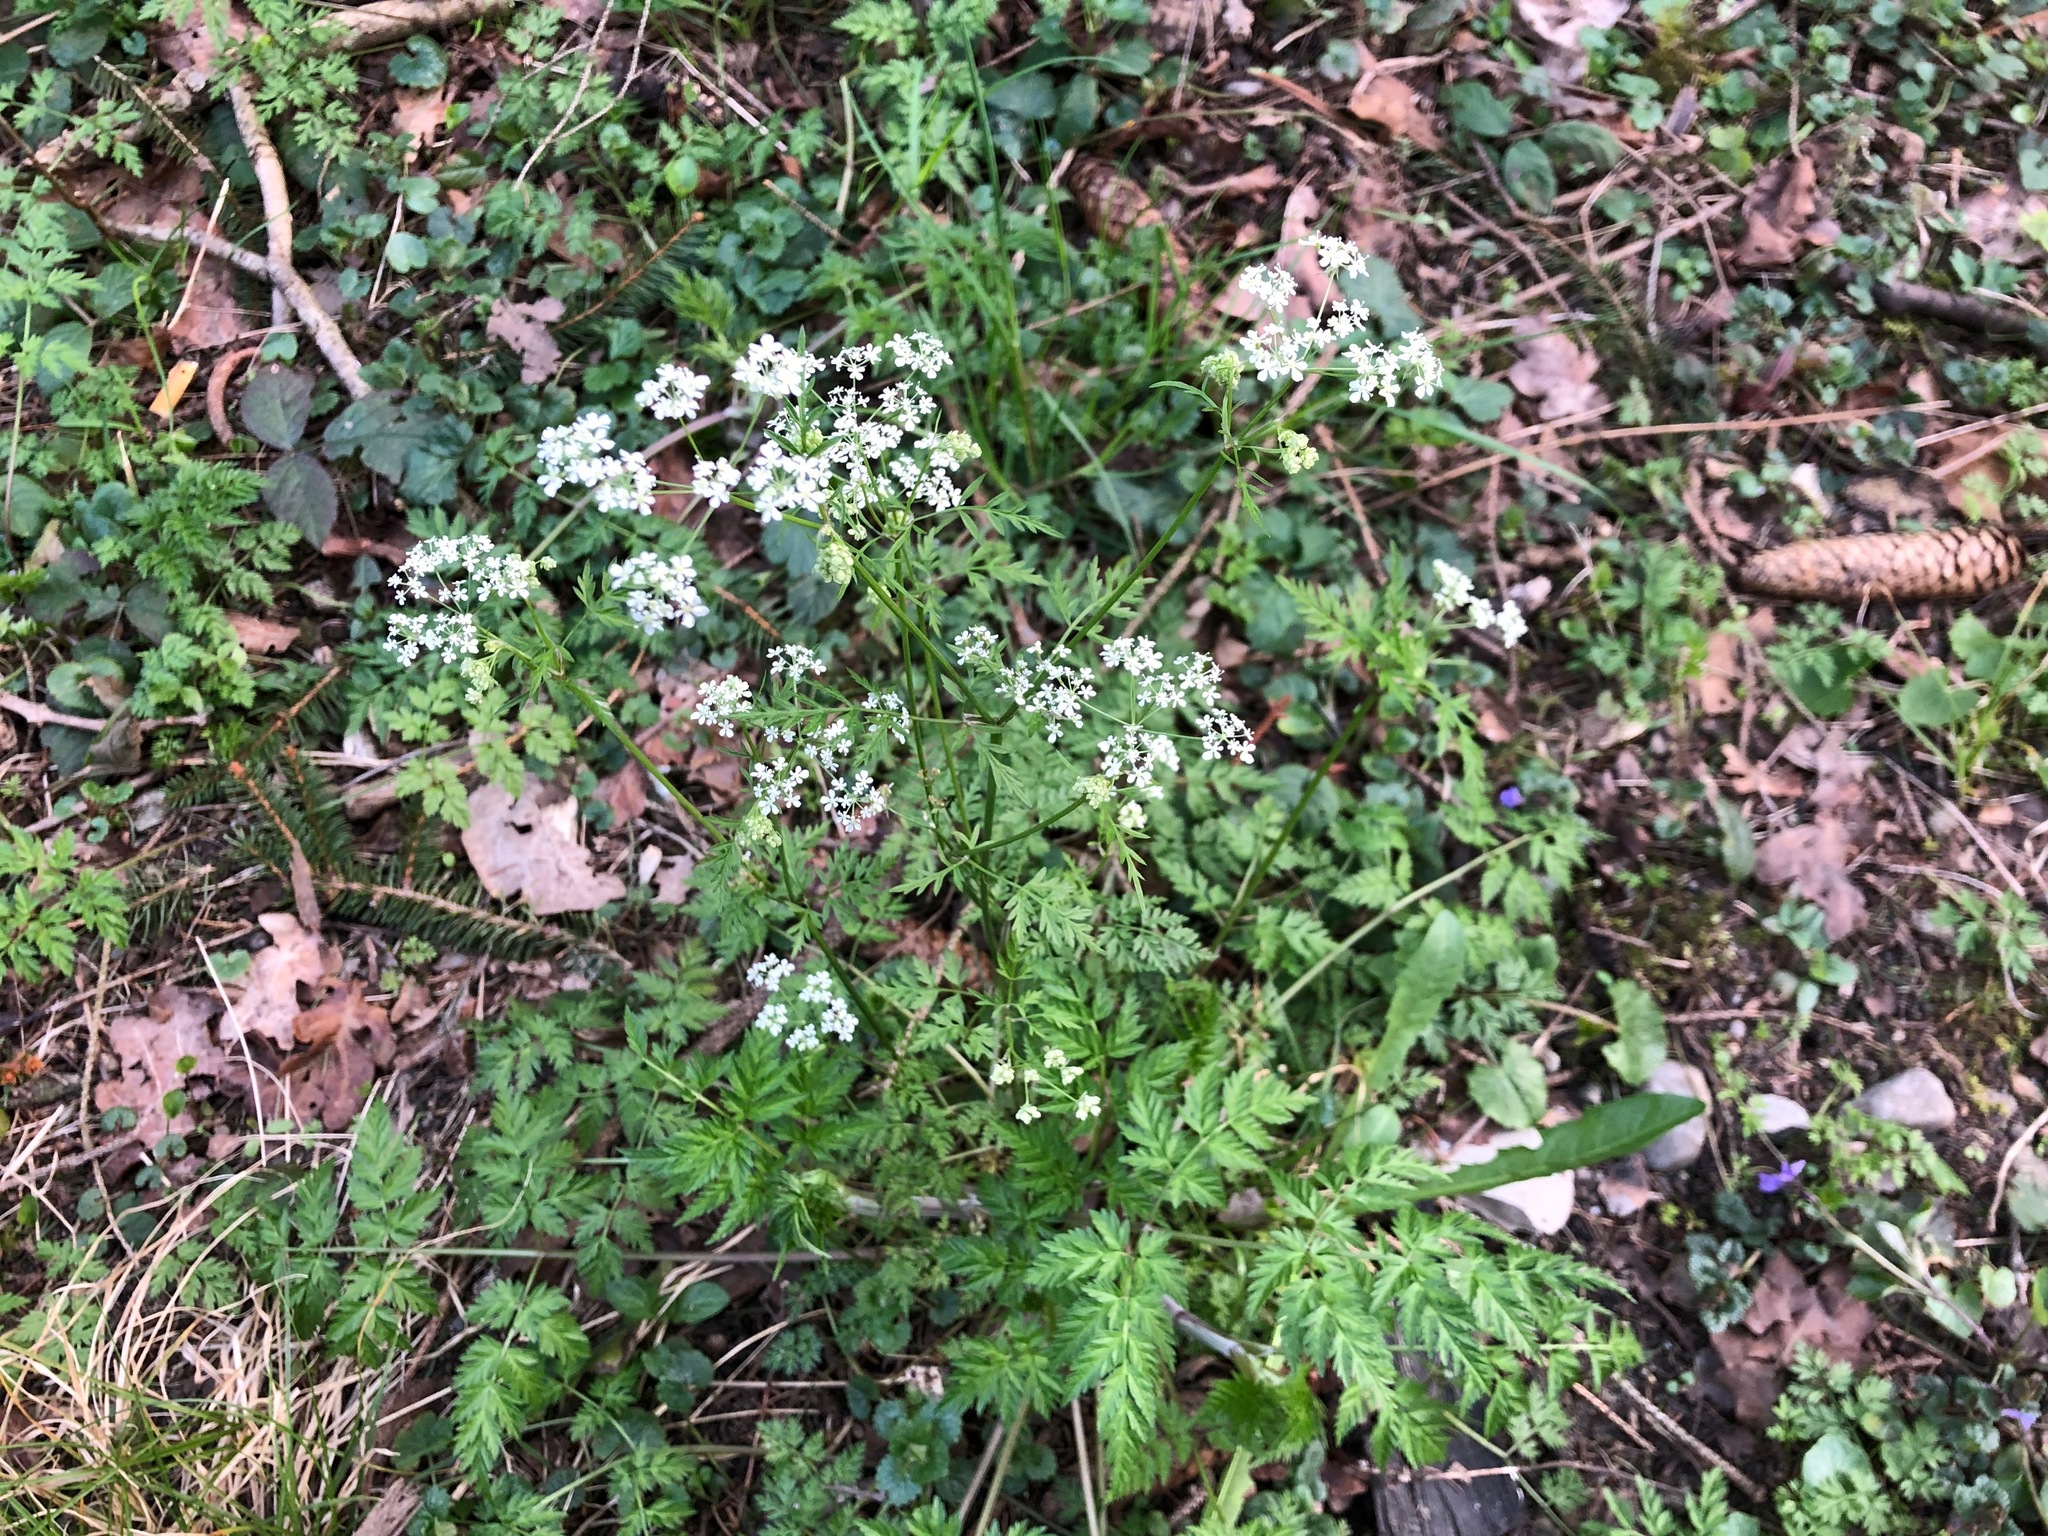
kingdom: Plantae
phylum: Tracheophyta
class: Magnoliopsida
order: Apiales
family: Apiaceae
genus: Anthriscus
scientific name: Anthriscus sylvestris
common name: Cow parsley
